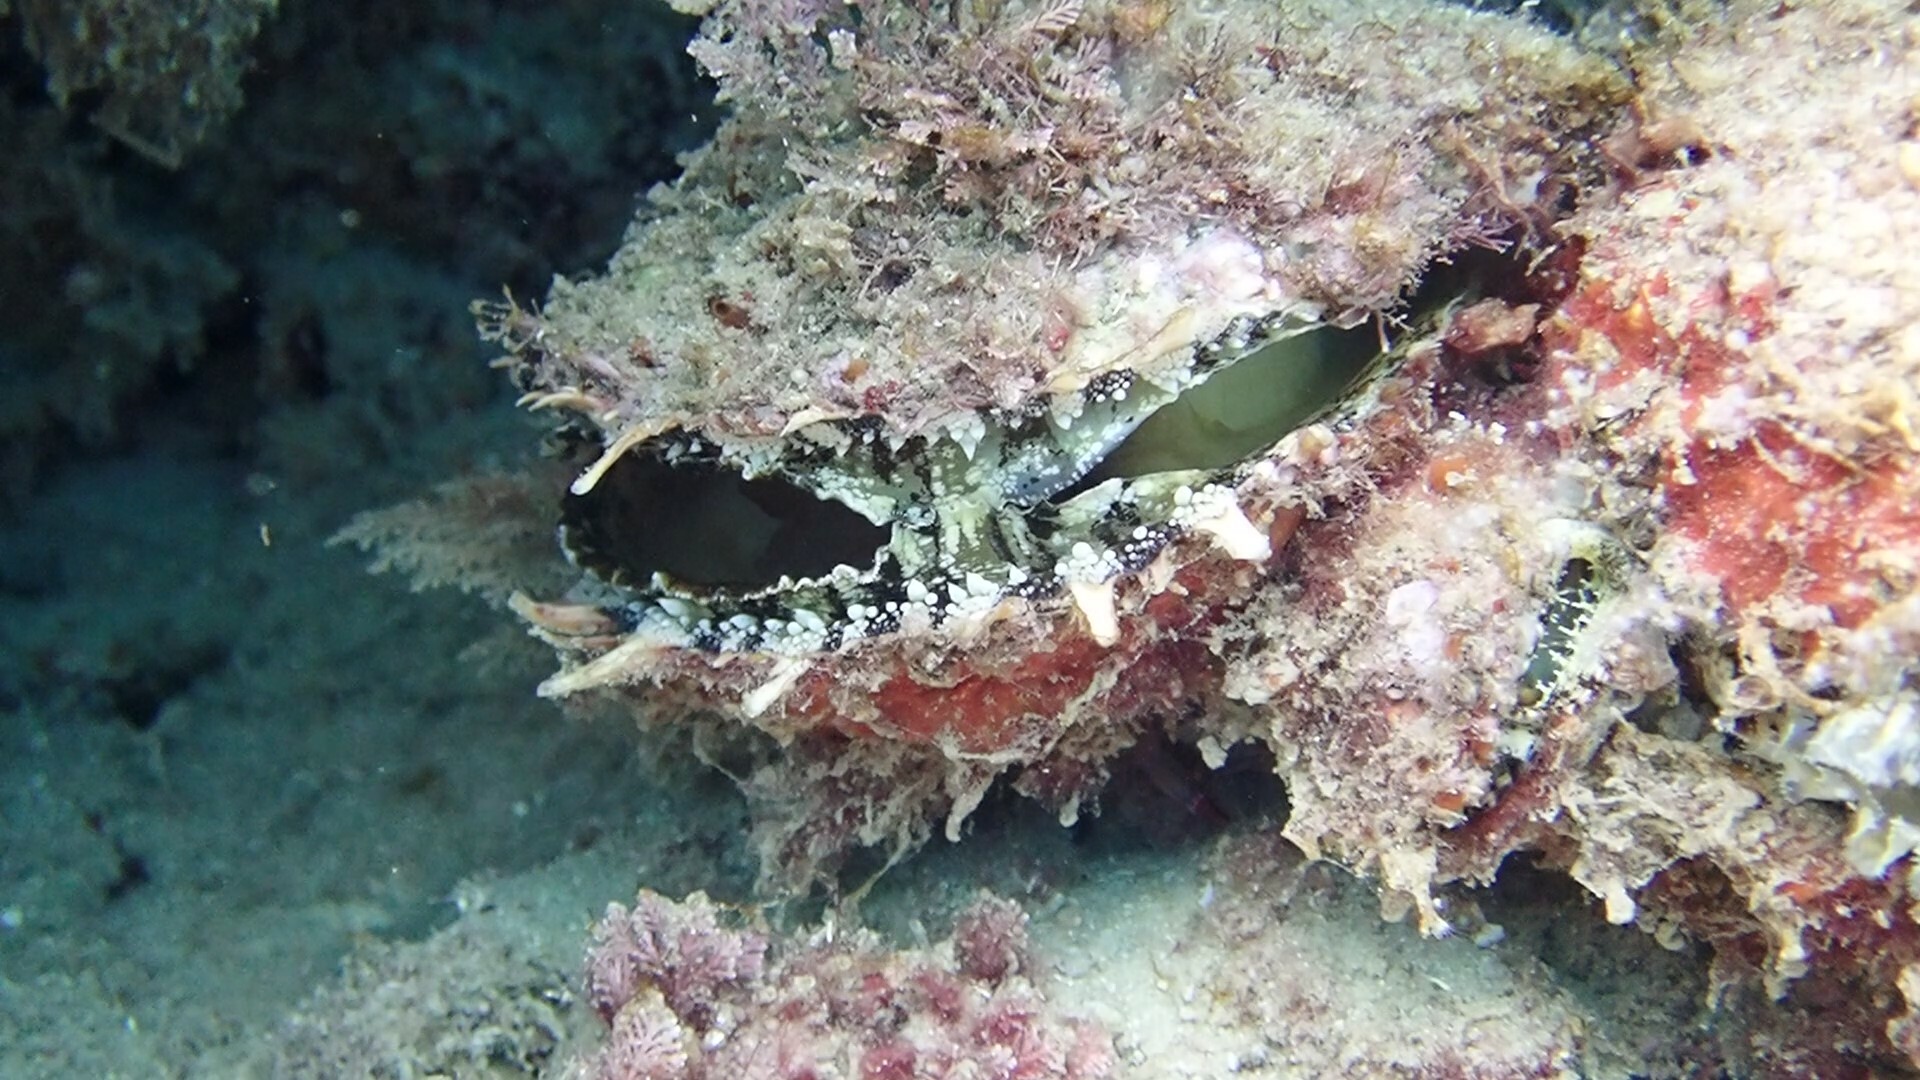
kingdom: Animalia
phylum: Mollusca
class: Bivalvia
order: Pectinida
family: Spondylidae
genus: Spondylus
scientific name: Spondylus spinosus
